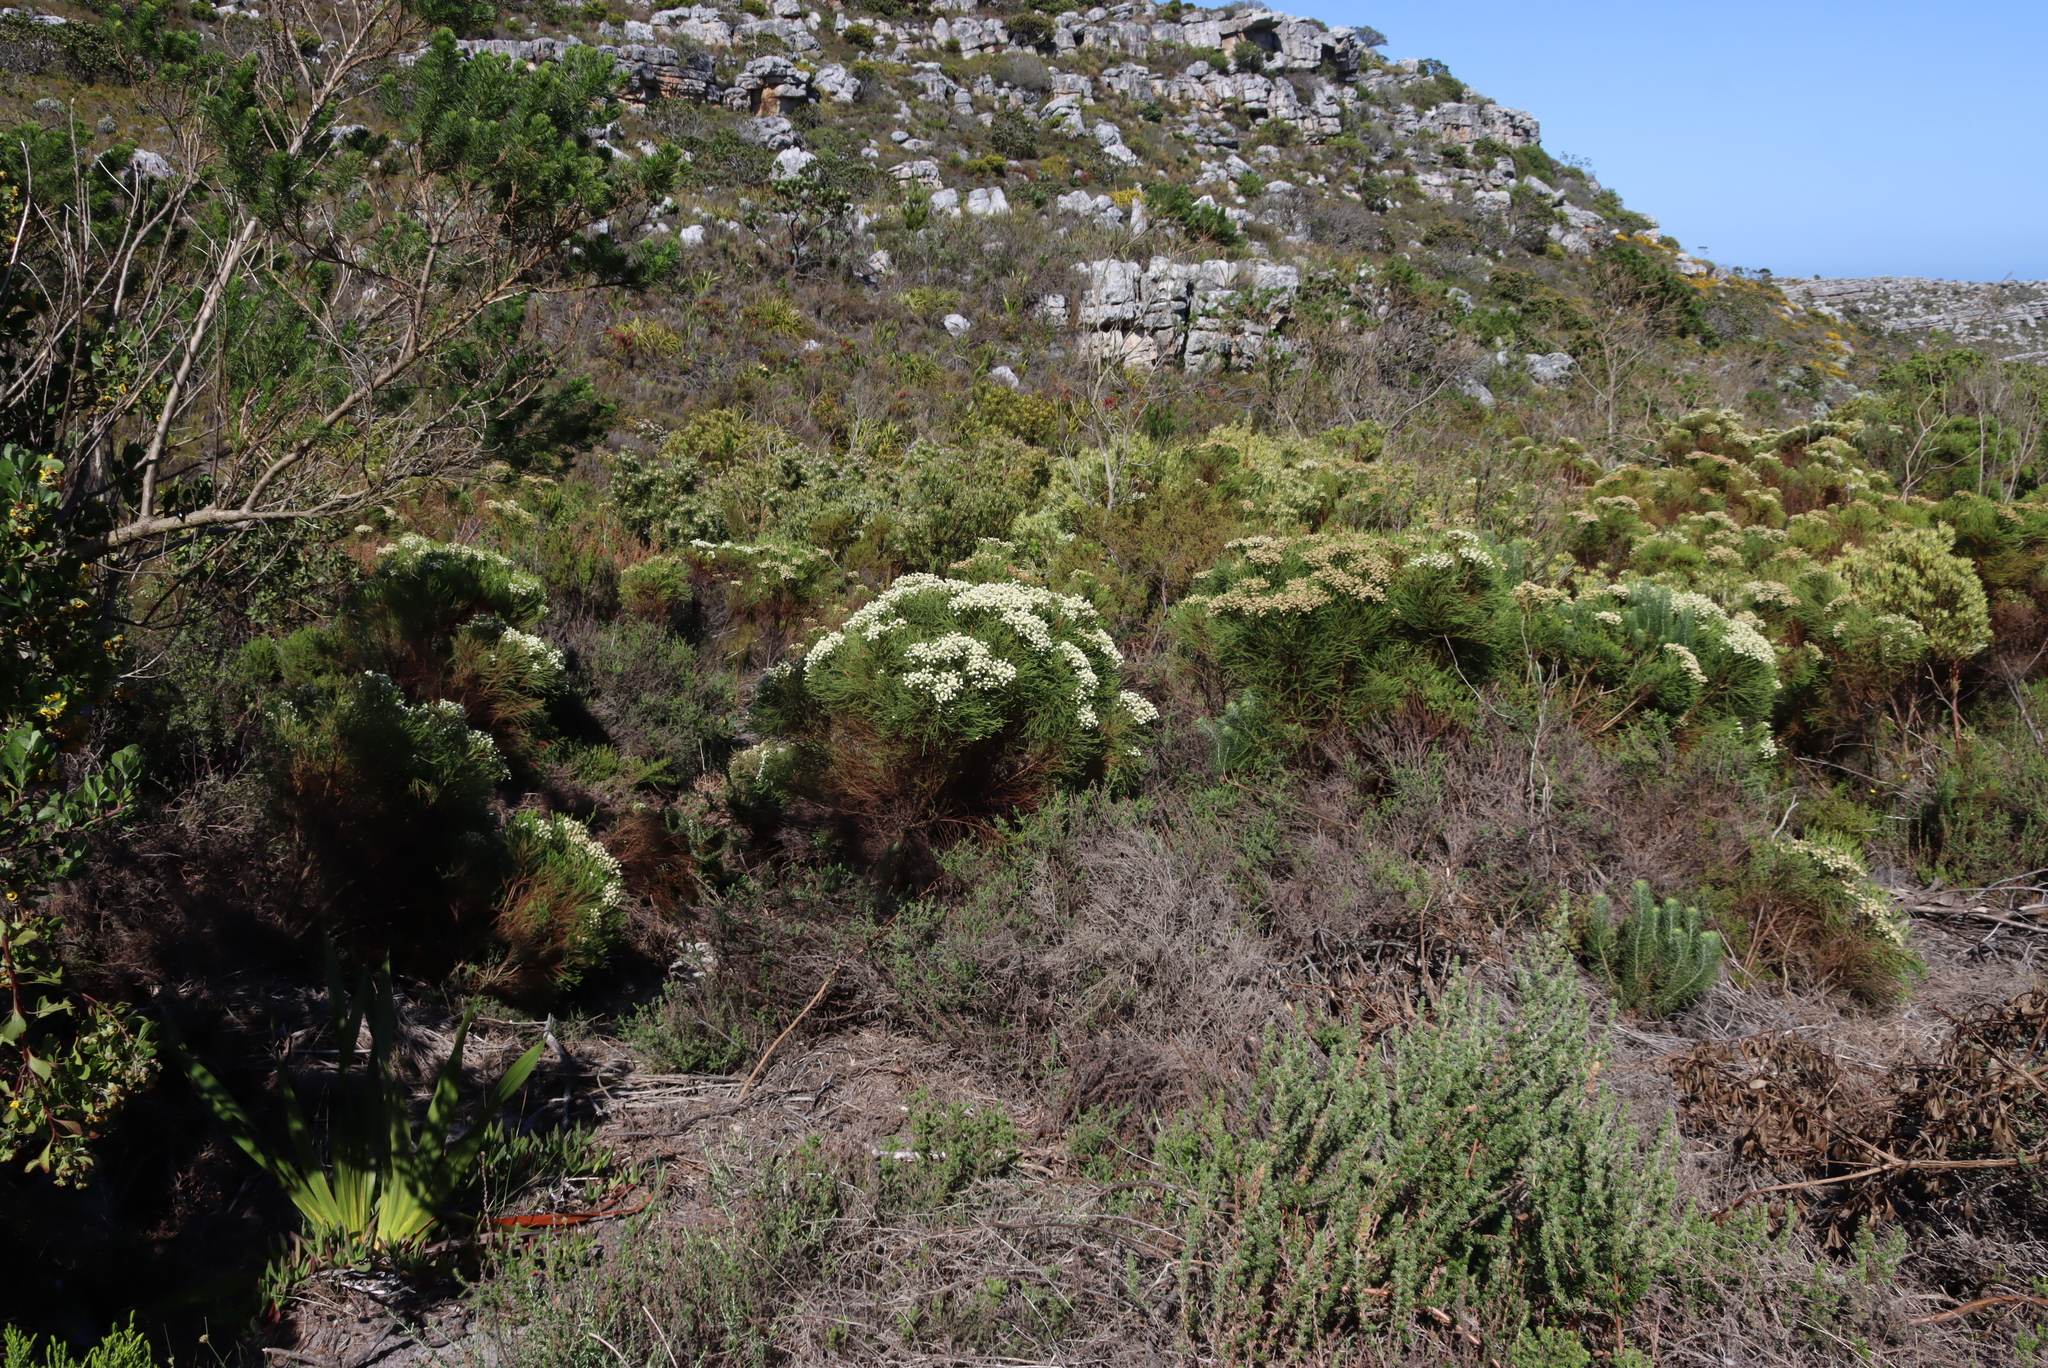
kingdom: Plantae
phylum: Tracheophyta
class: Magnoliopsida
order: Bruniales
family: Bruniaceae
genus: Berzelia
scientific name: Berzelia lanuginosa
